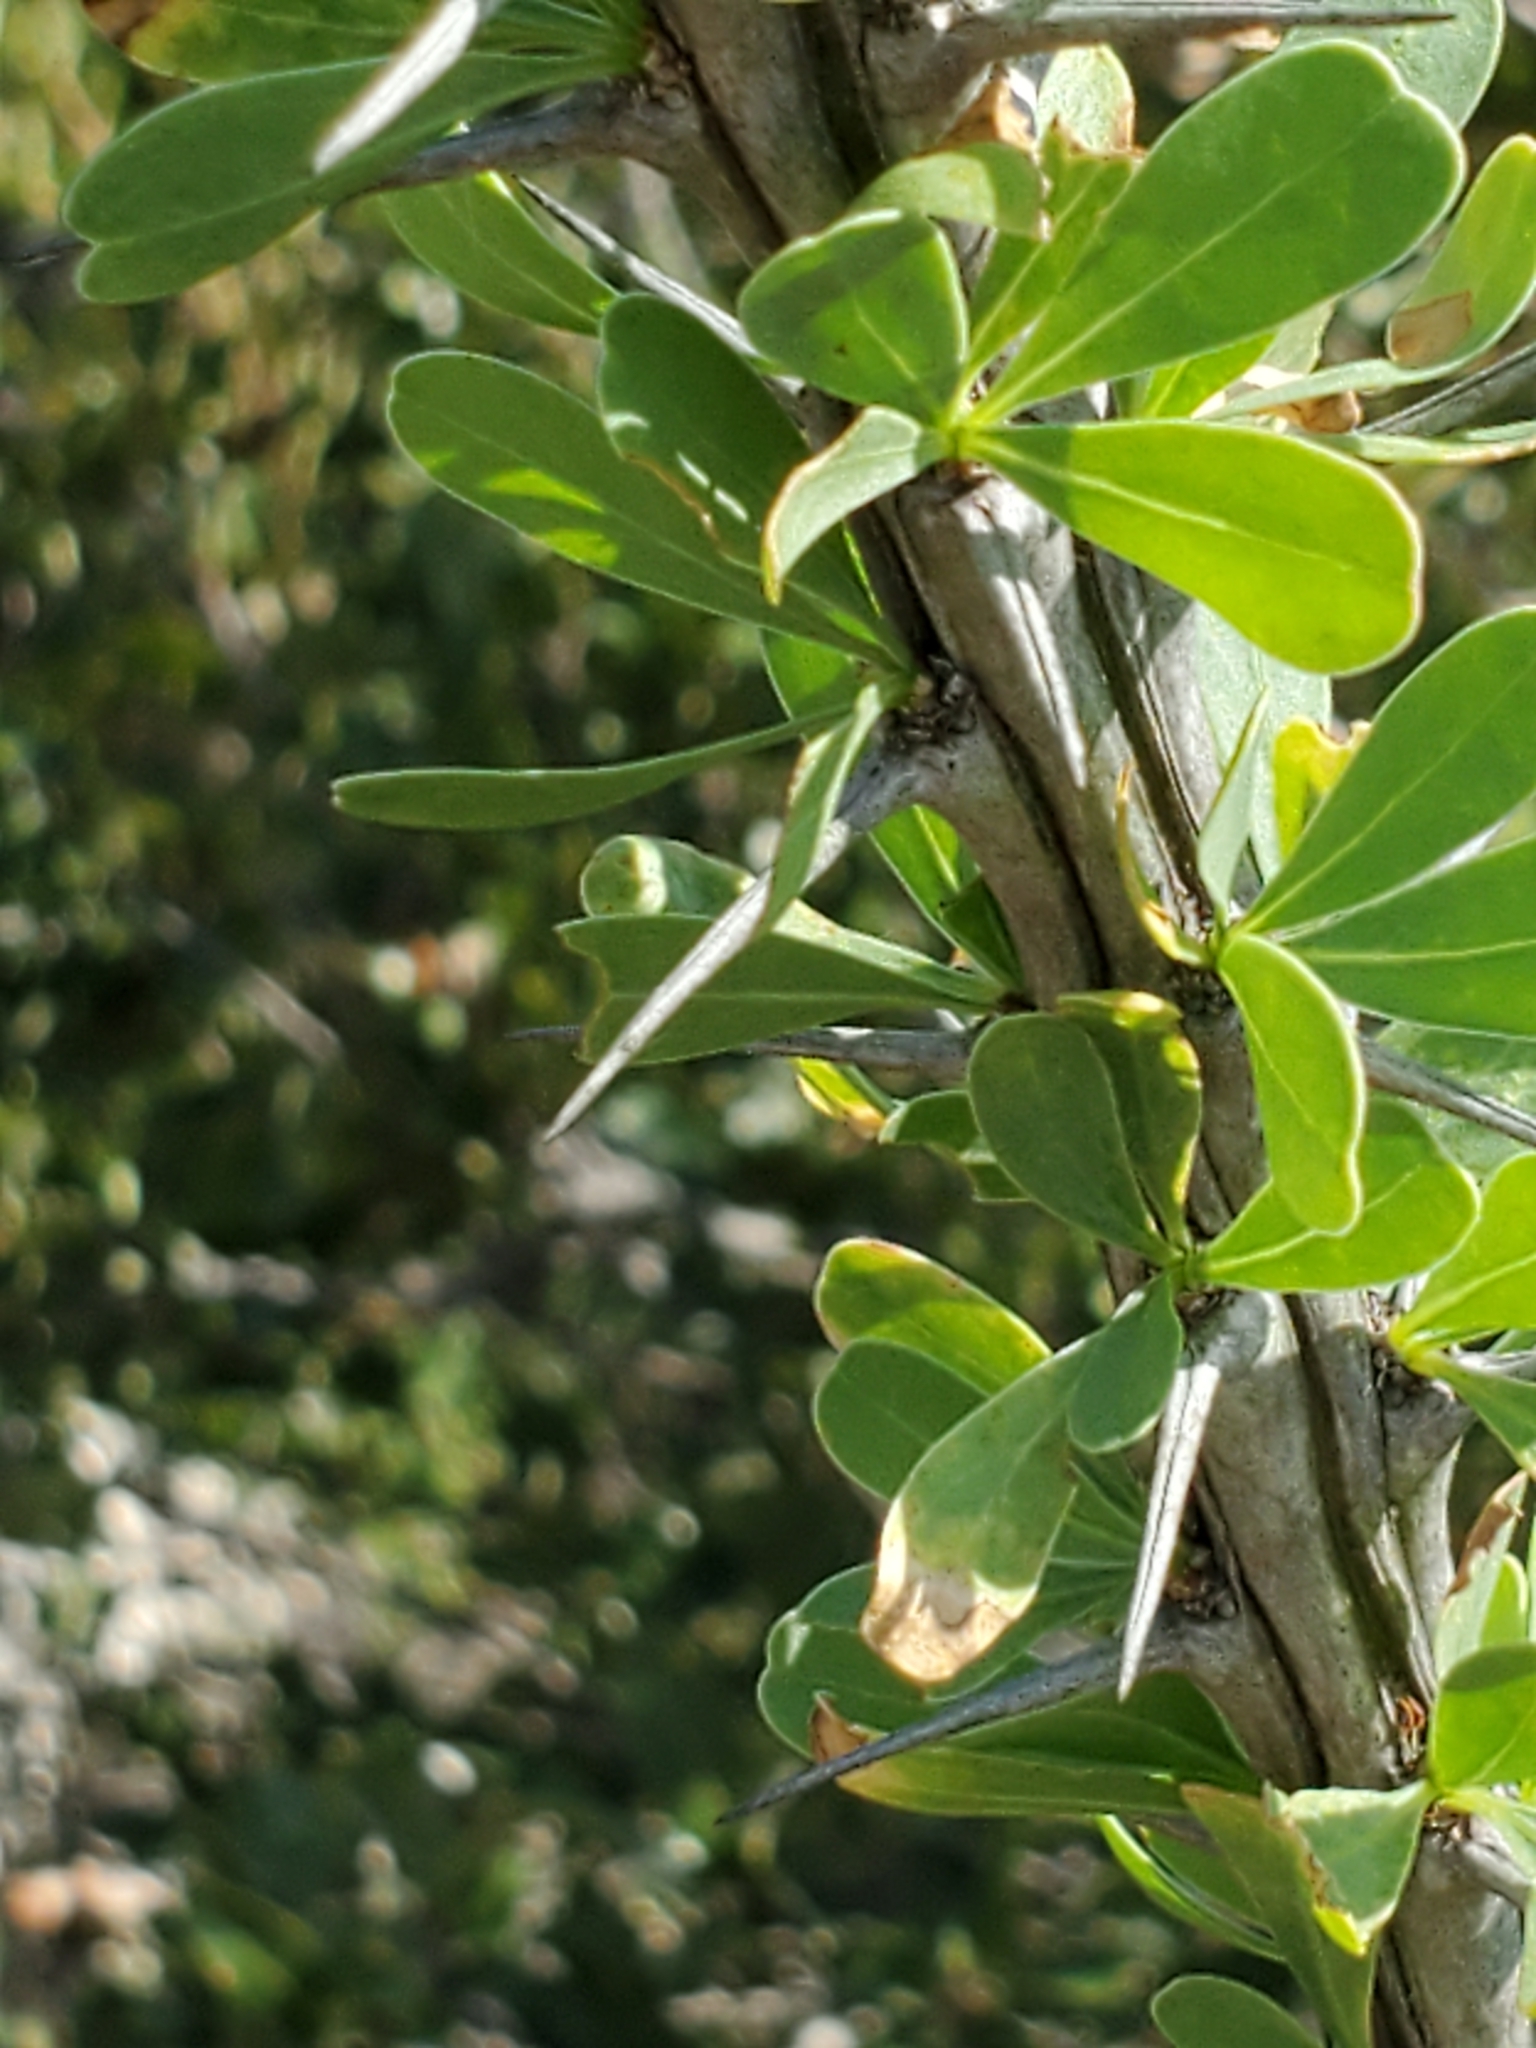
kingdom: Plantae
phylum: Tracheophyta
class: Magnoliopsida
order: Ericales
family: Fouquieriaceae
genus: Fouquieria
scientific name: Fouquieria splendens
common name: Vine-cactus
